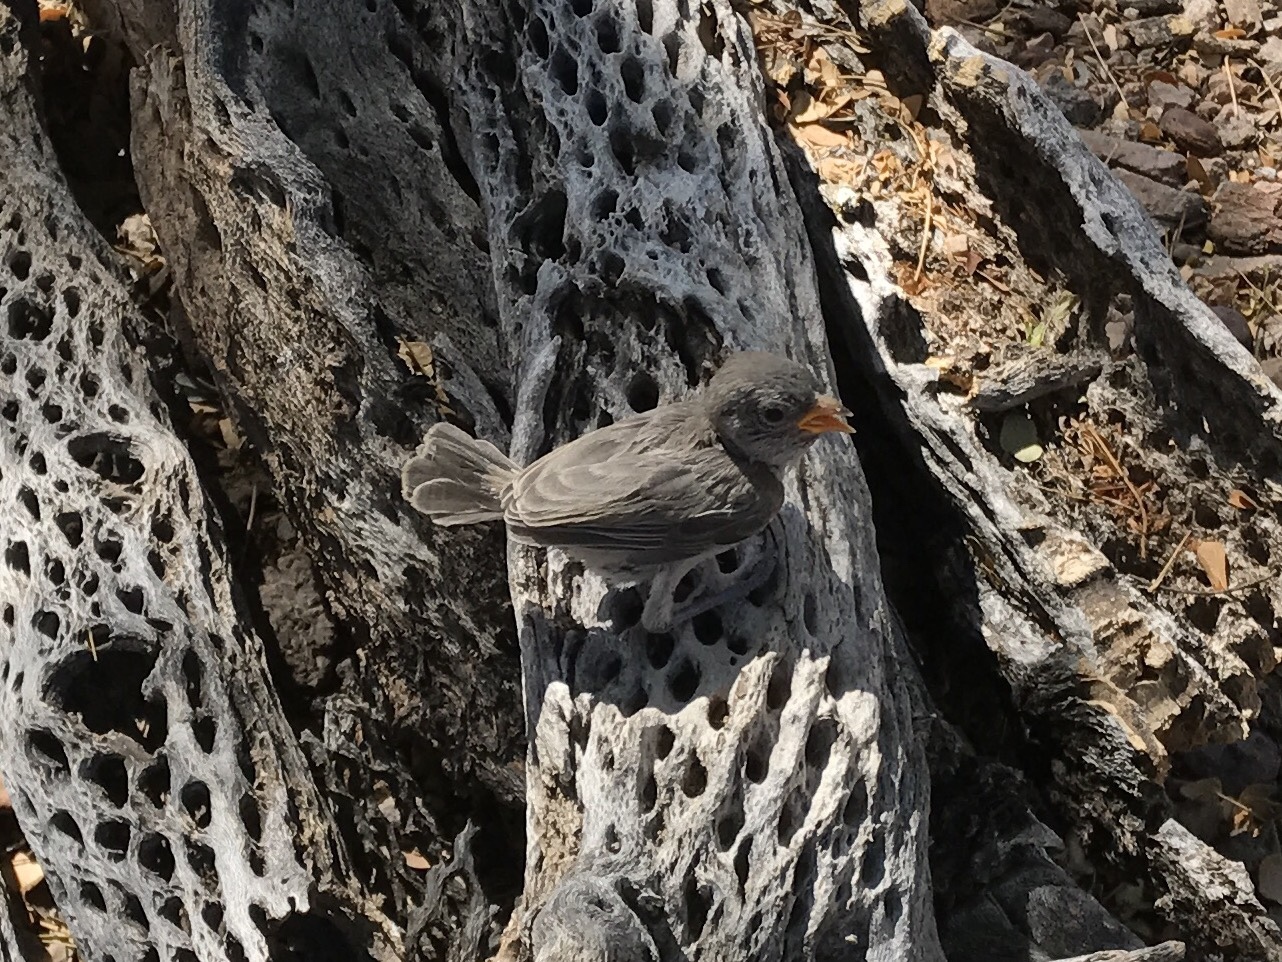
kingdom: Animalia
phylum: Chordata
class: Aves
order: Passeriformes
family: Remizidae
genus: Auriparus
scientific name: Auriparus flaviceps
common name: Verdin
